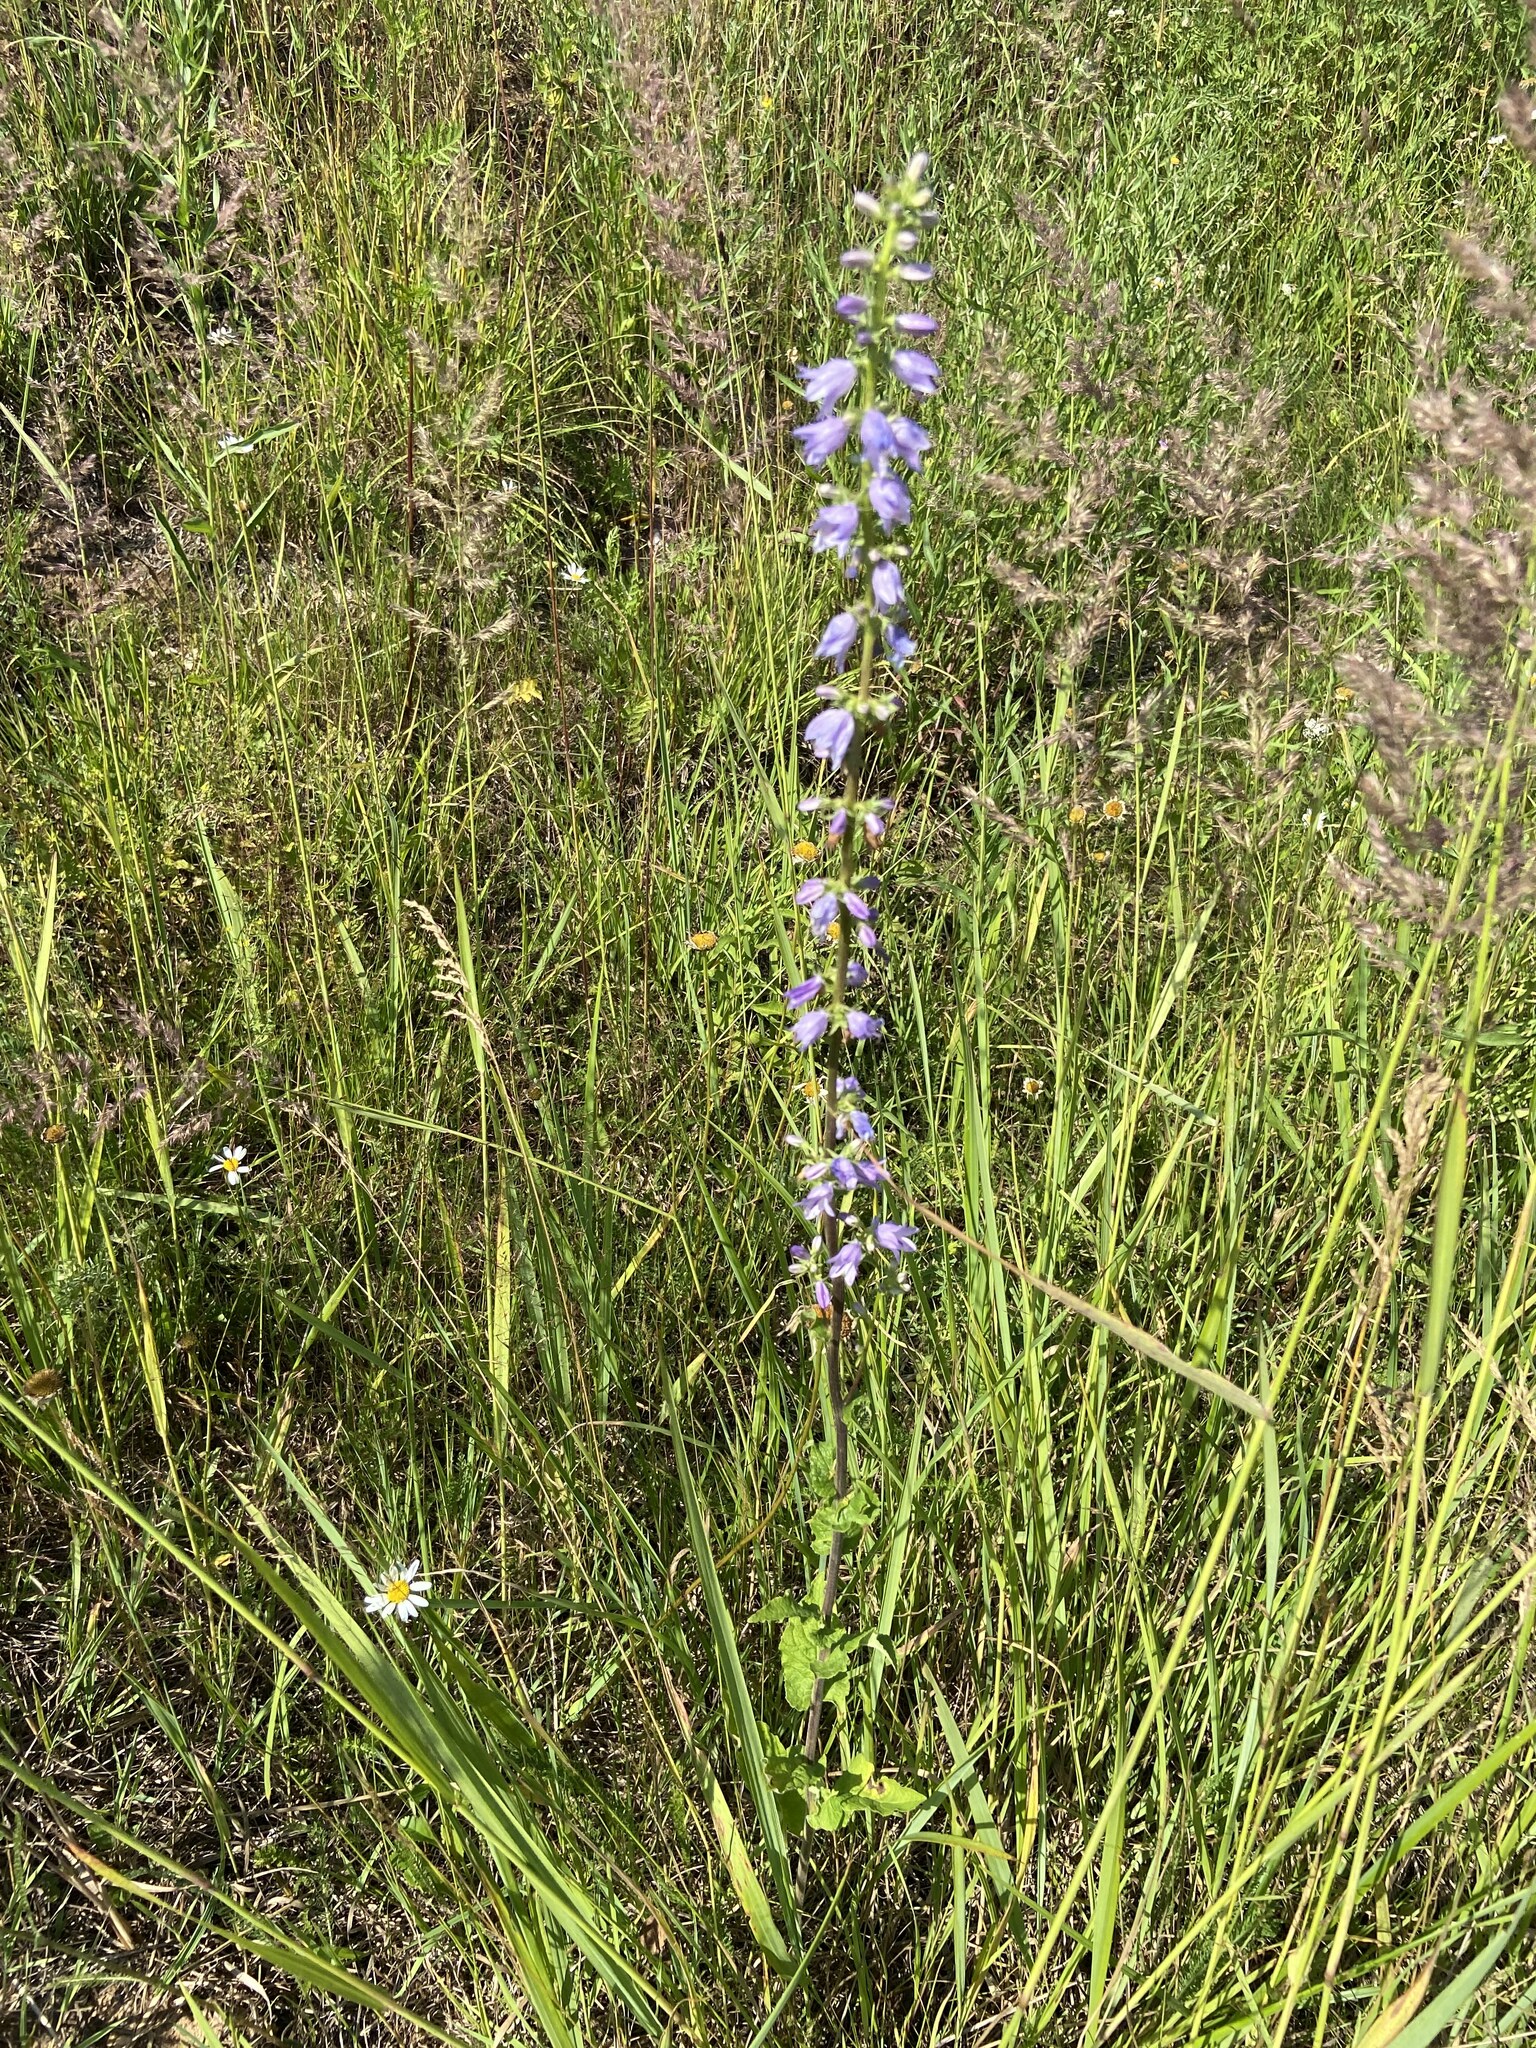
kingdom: Plantae
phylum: Tracheophyta
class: Magnoliopsida
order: Asterales
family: Campanulaceae
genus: Campanula
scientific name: Campanula bononiensis
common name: Pale bellflower
